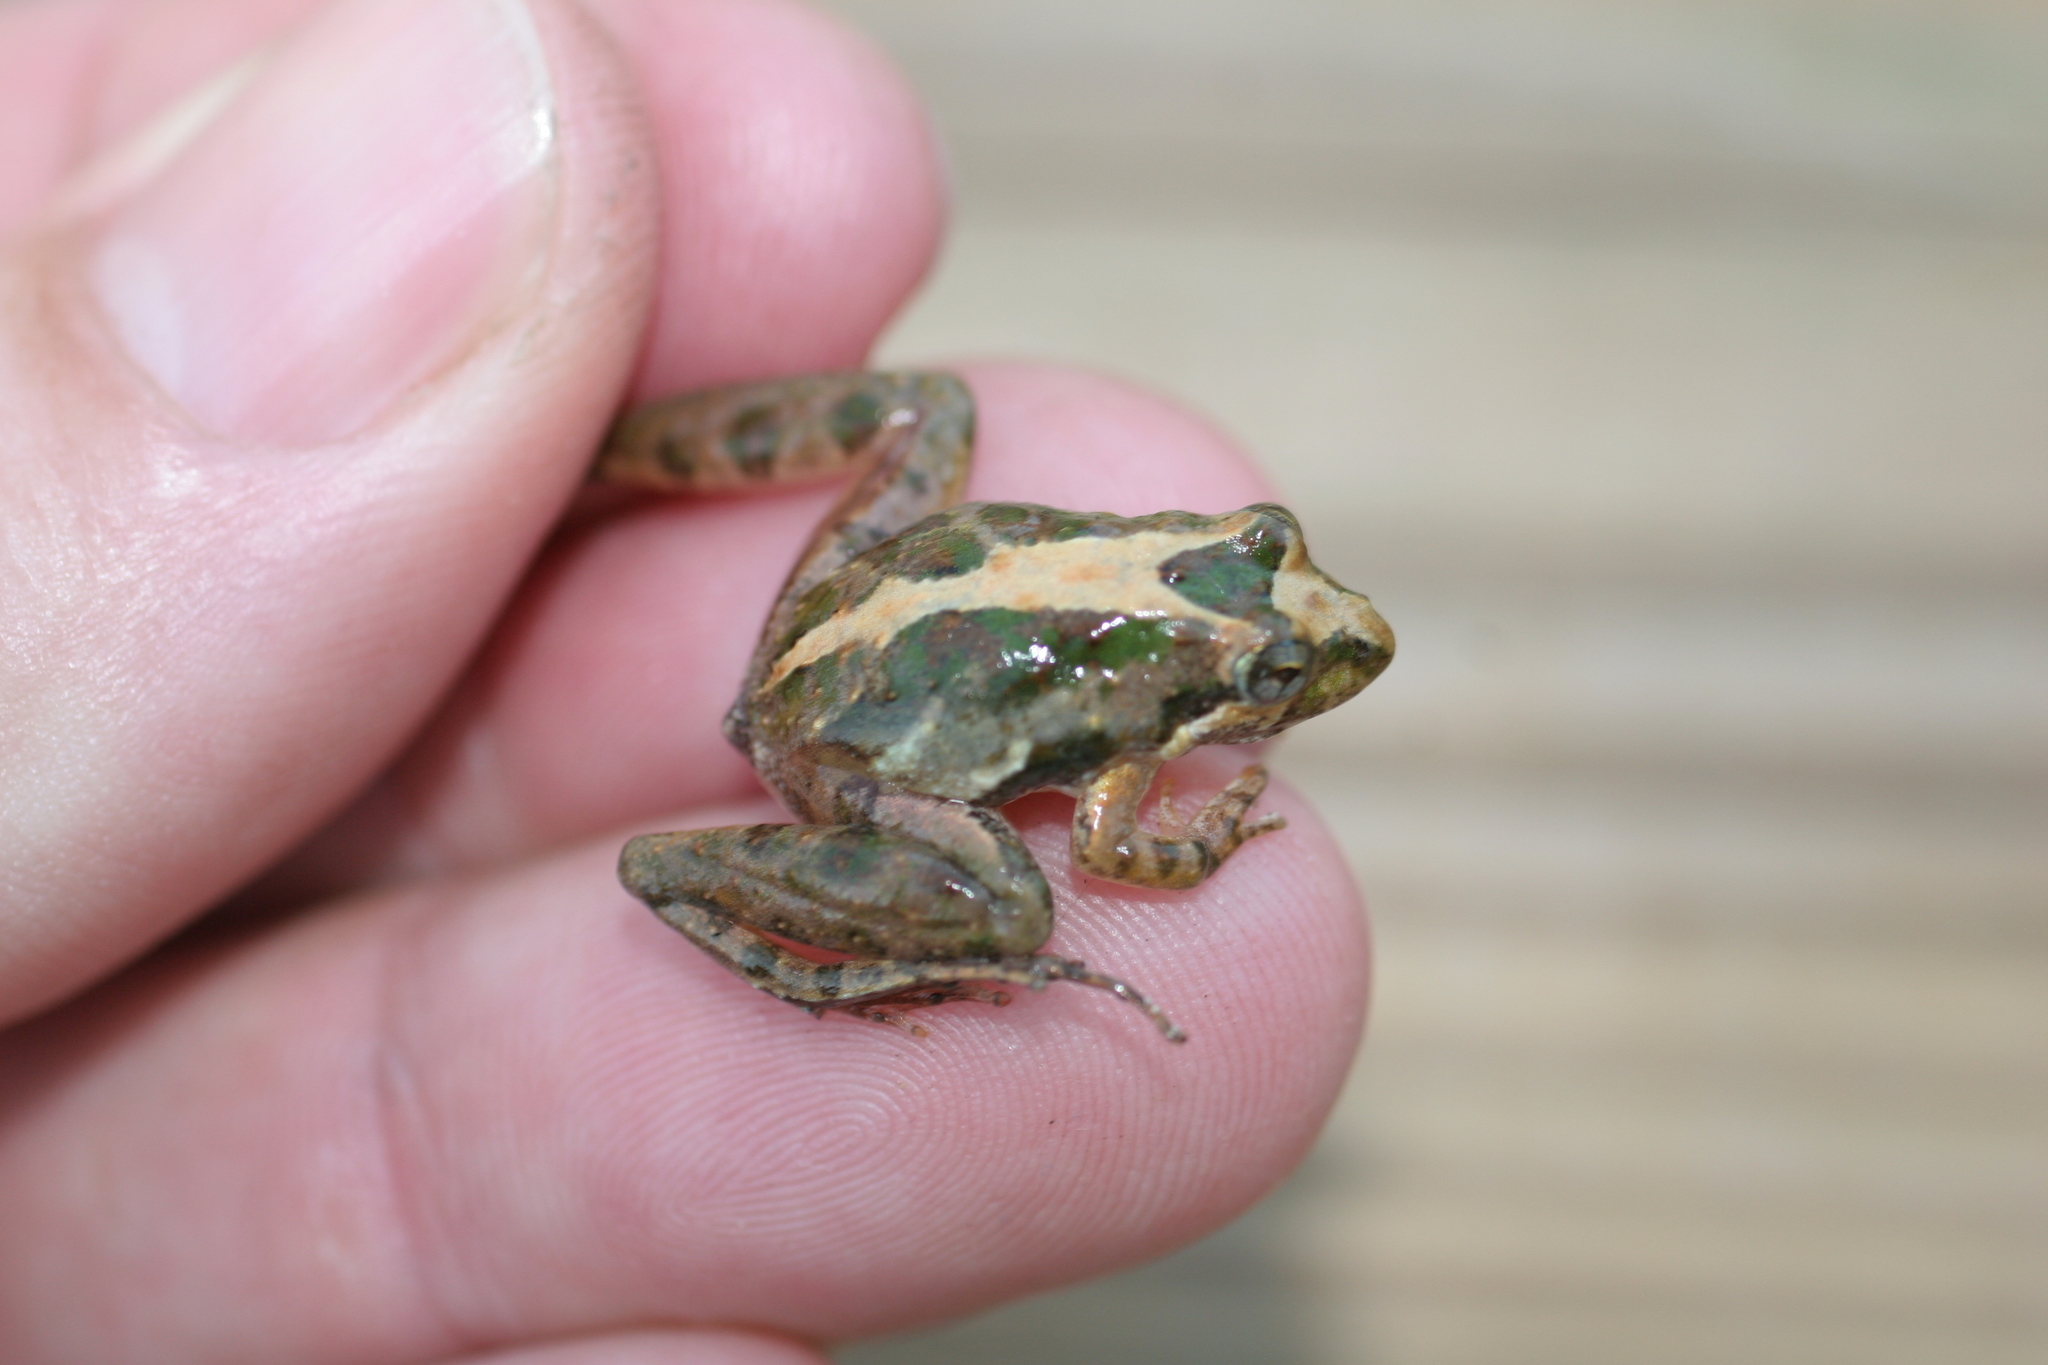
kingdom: Animalia
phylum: Chordata
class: Amphibia
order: Anura
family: Hylidae
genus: Acris
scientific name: Acris gryllus
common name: Southern cricket frog
